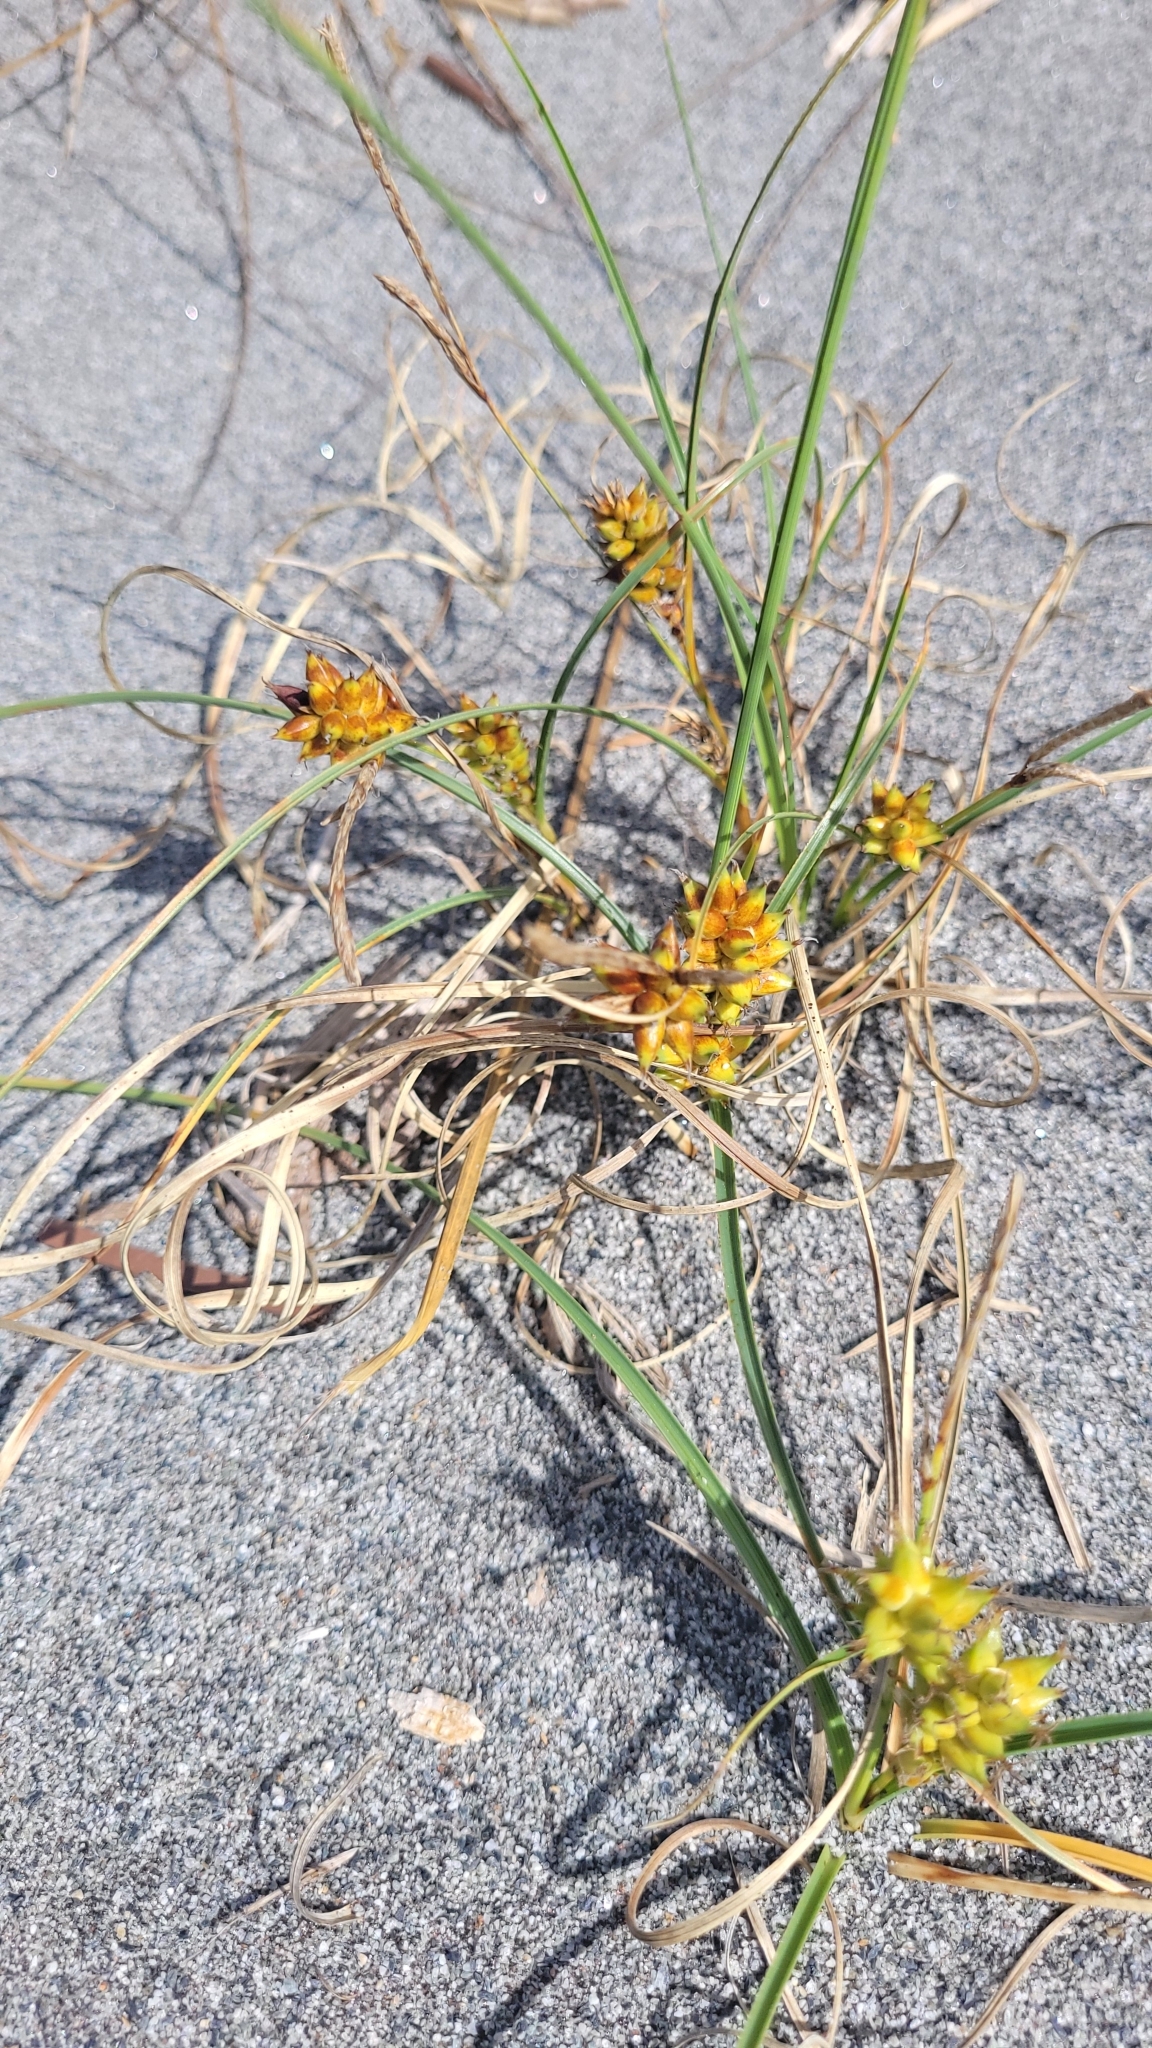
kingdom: Plantae
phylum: Tracheophyta
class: Liliopsida
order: Poales
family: Cyperaceae
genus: Carex
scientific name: Carex pumila
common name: Dwarf sedge
